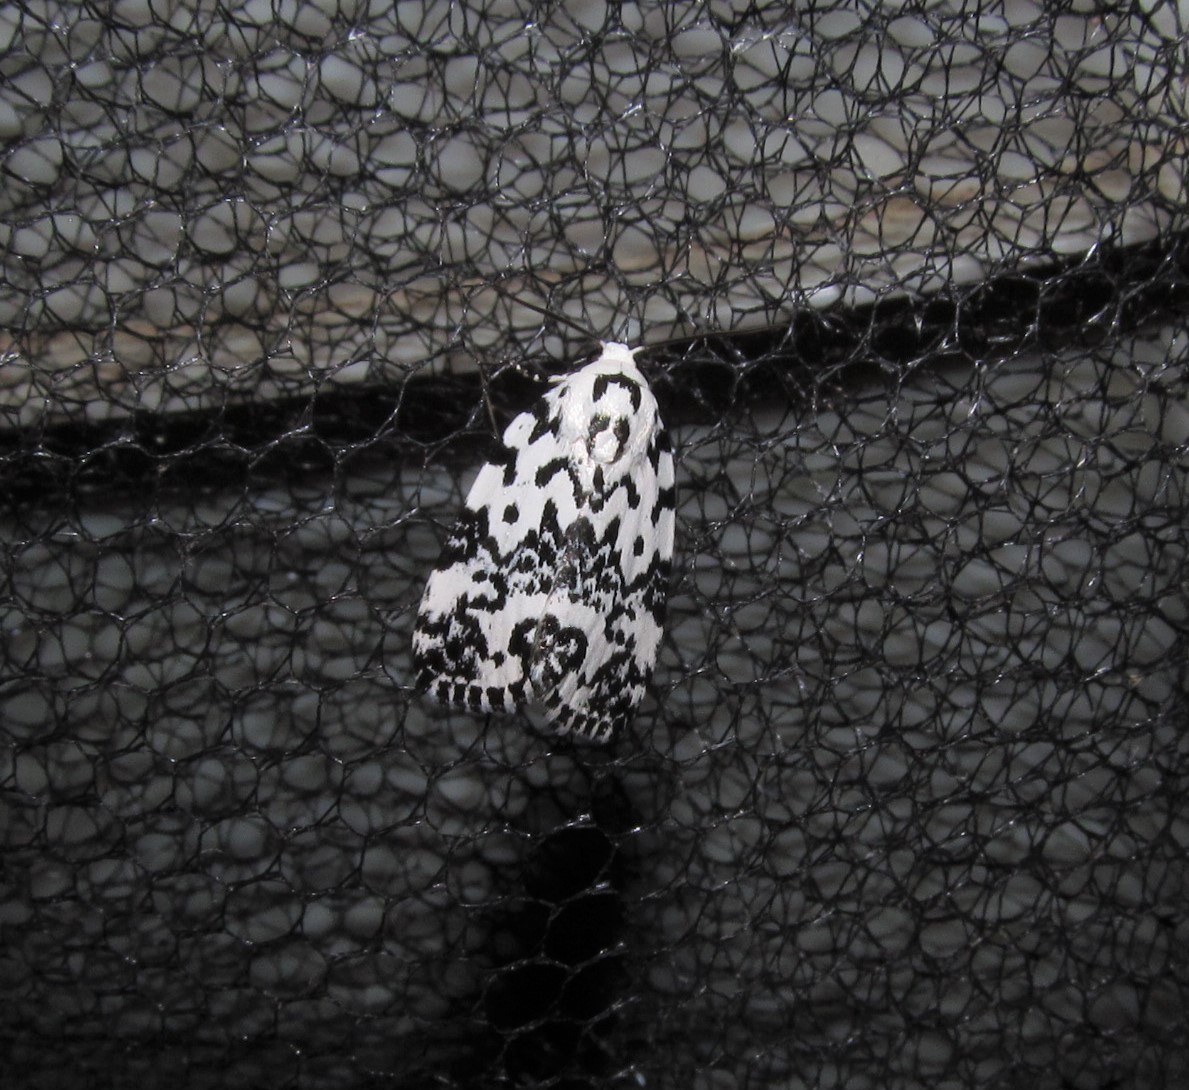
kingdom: Animalia
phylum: Arthropoda
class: Insecta
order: Lepidoptera
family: Noctuidae
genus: Polygrammate
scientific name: Polygrammate hebraeicum
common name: Hebrew moth
